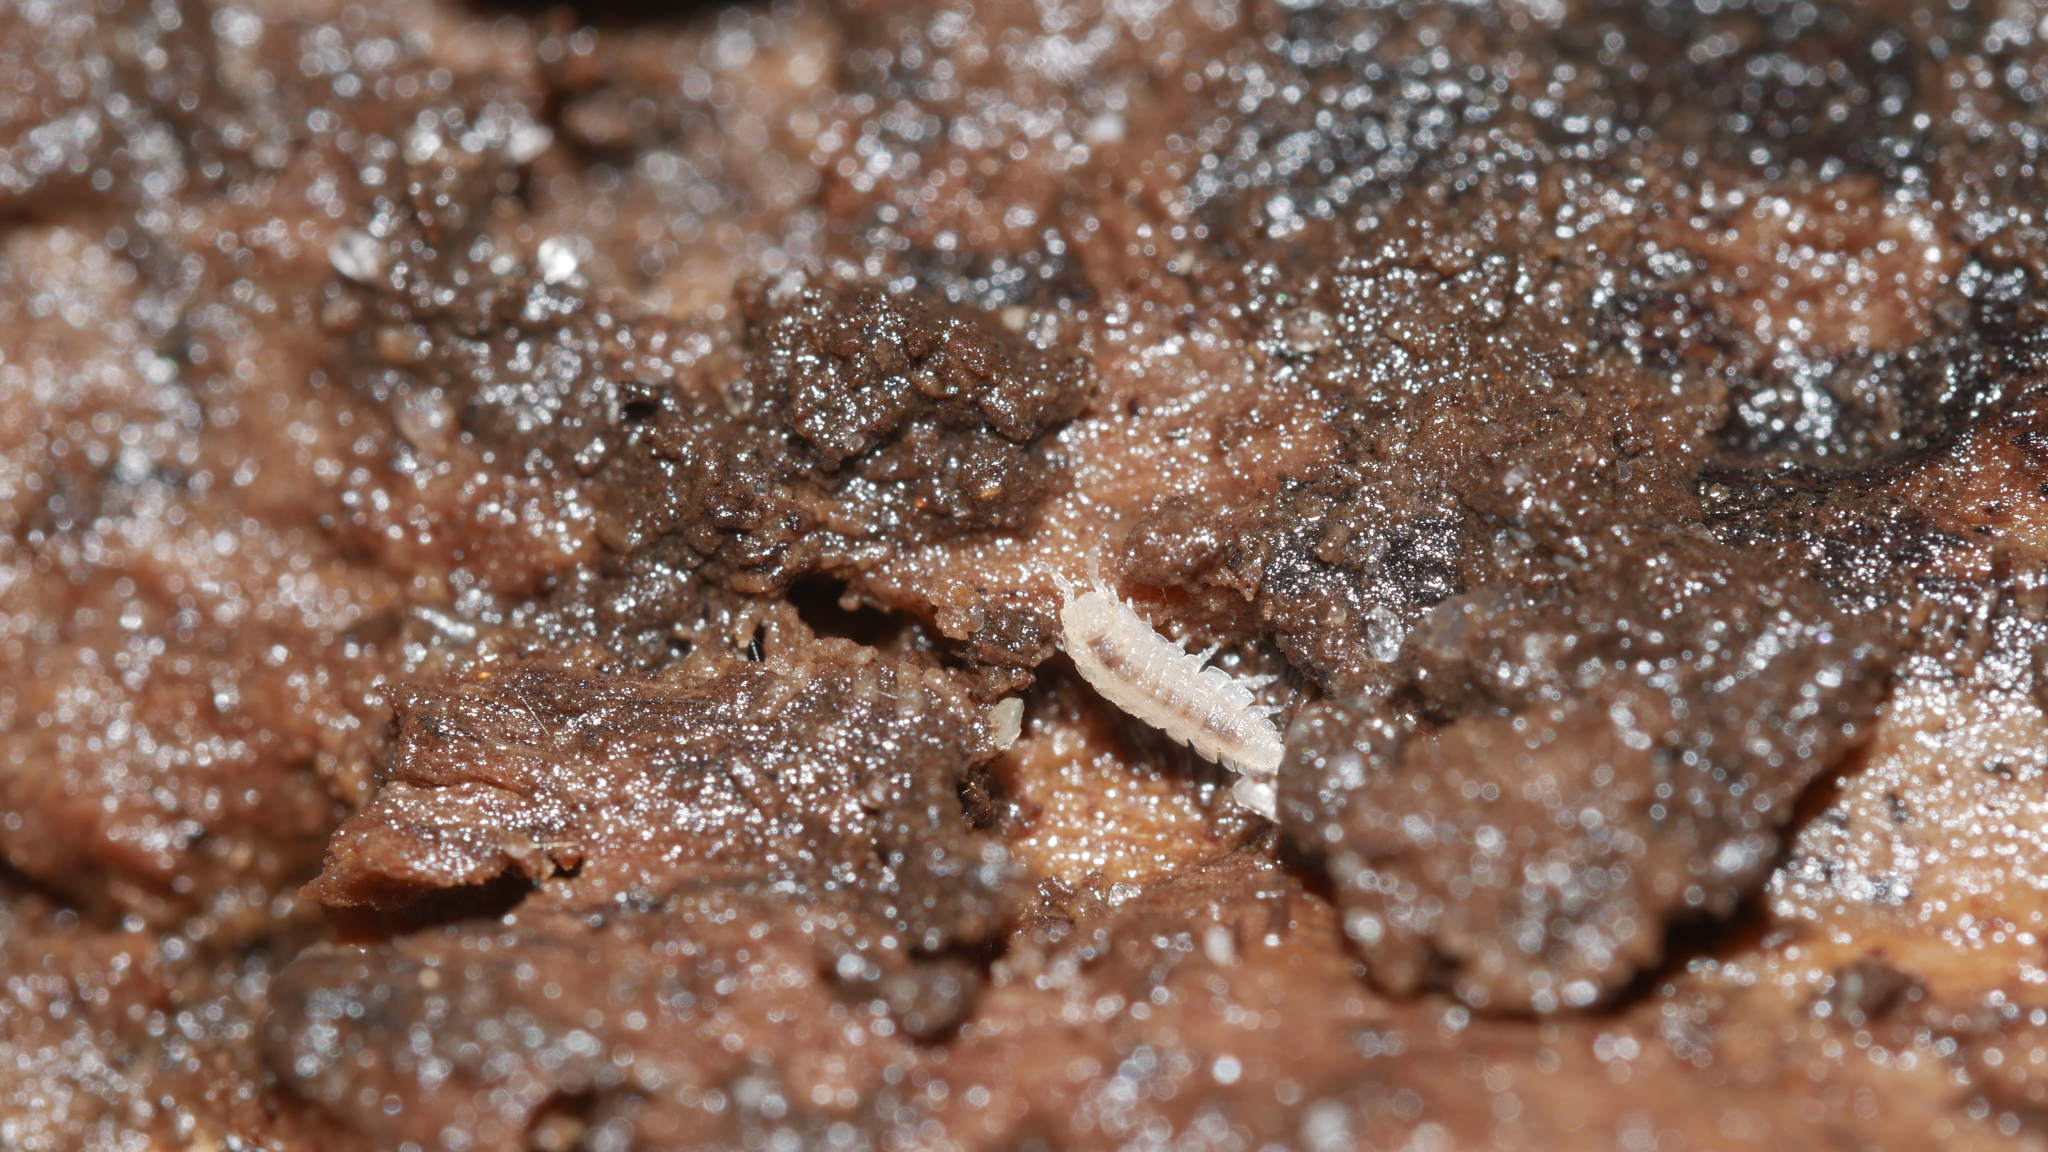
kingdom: Animalia
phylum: Arthropoda
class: Malacostraca
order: Isopoda
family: Trichoniscidae
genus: Haplophthalmus
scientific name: Haplophthalmus danicus
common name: Pillbug
